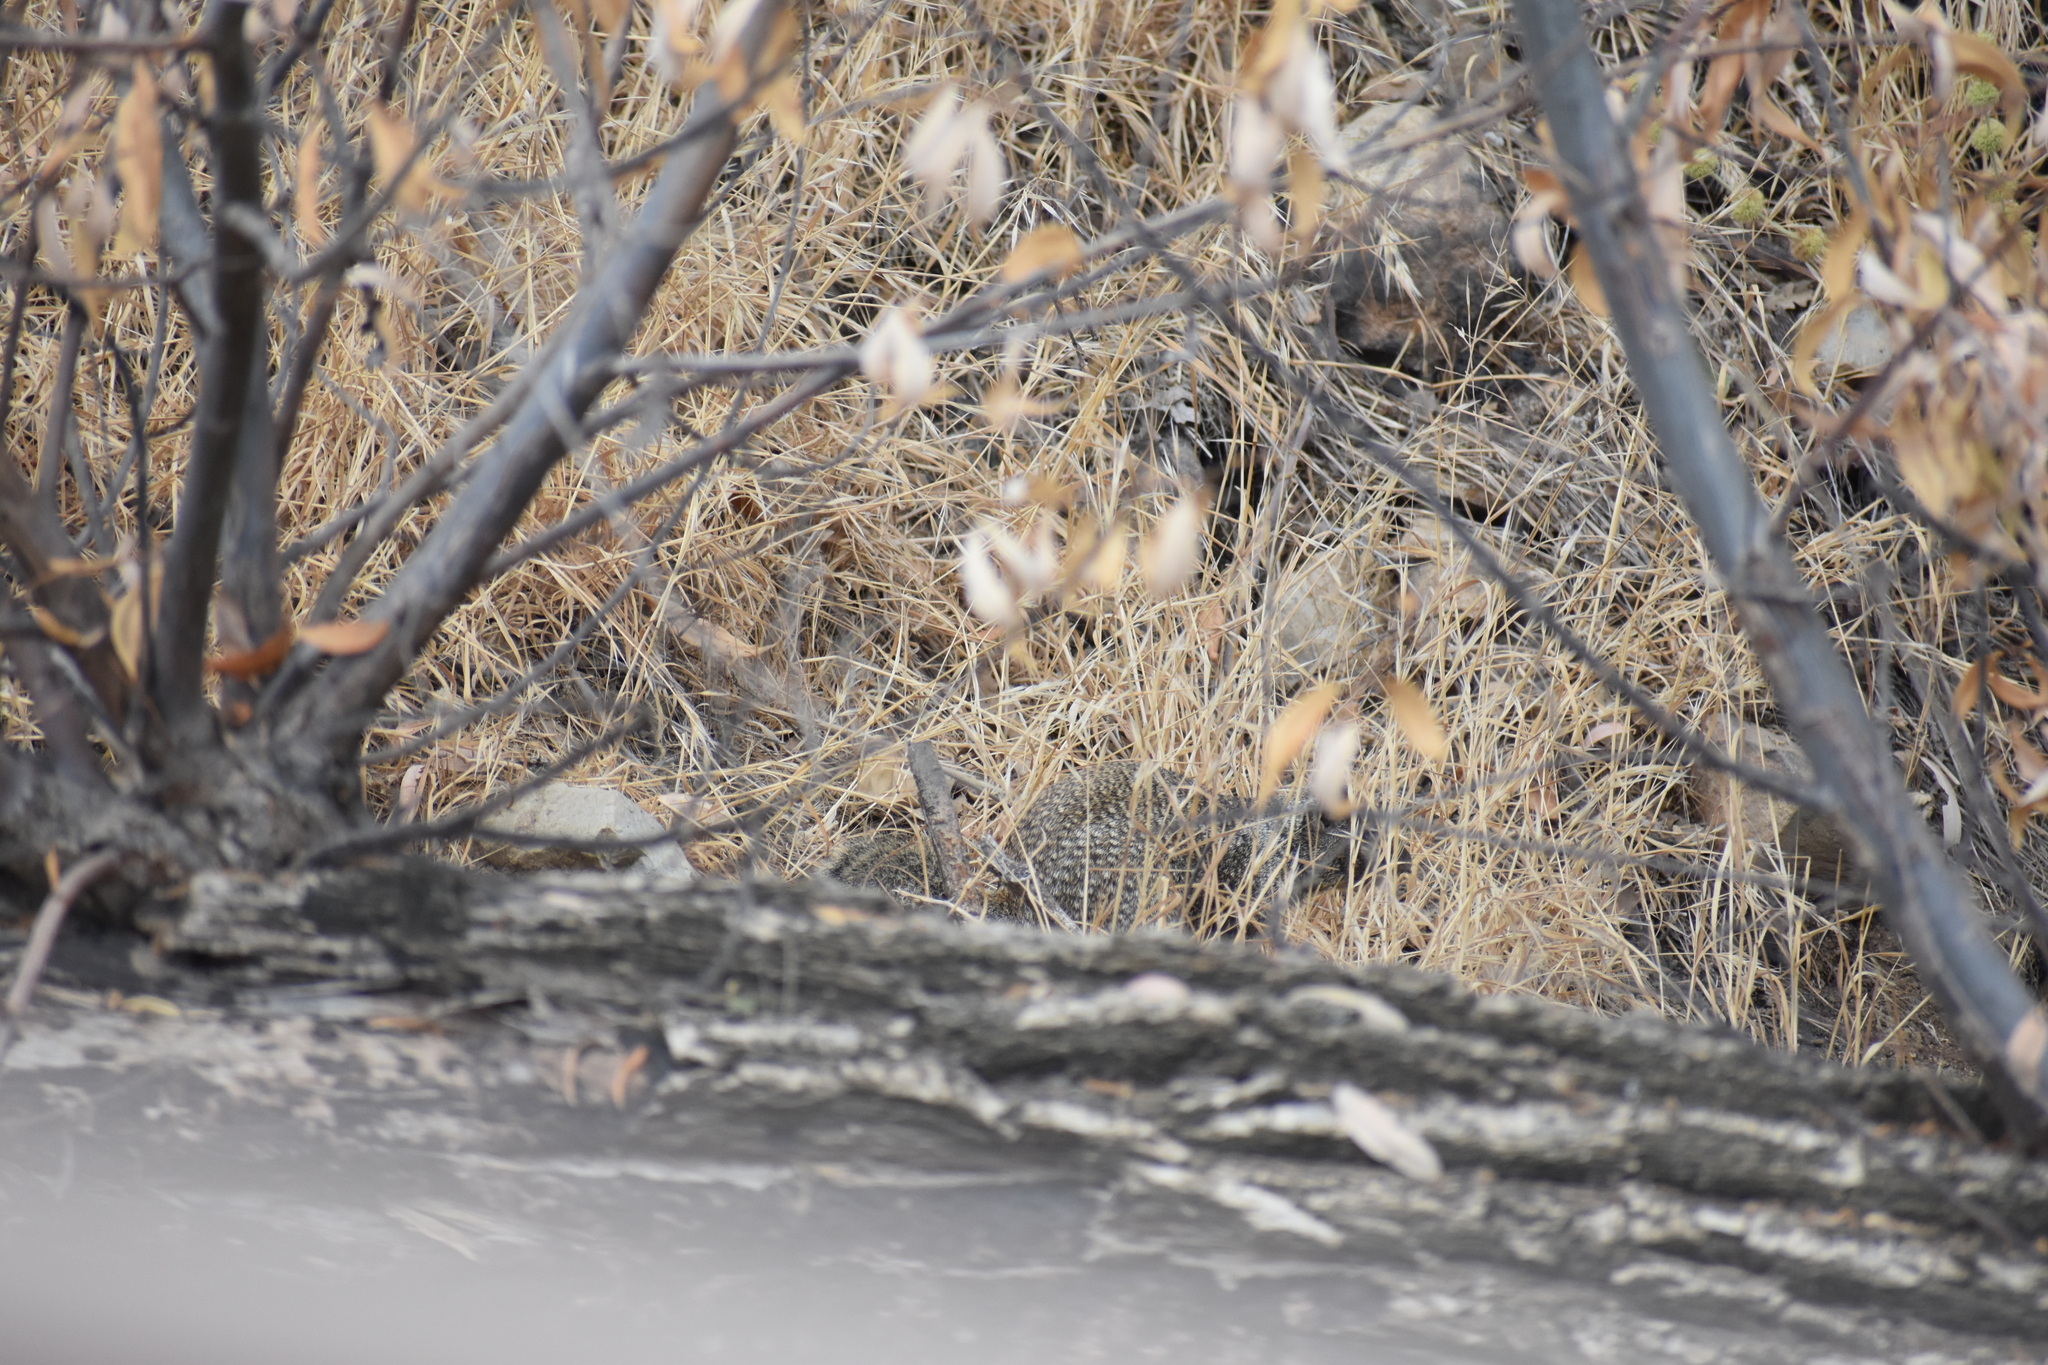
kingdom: Animalia
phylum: Chordata
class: Mammalia
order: Rodentia
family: Sciuridae
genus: Otospermophilus
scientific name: Otospermophilus beecheyi
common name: California ground squirrel
